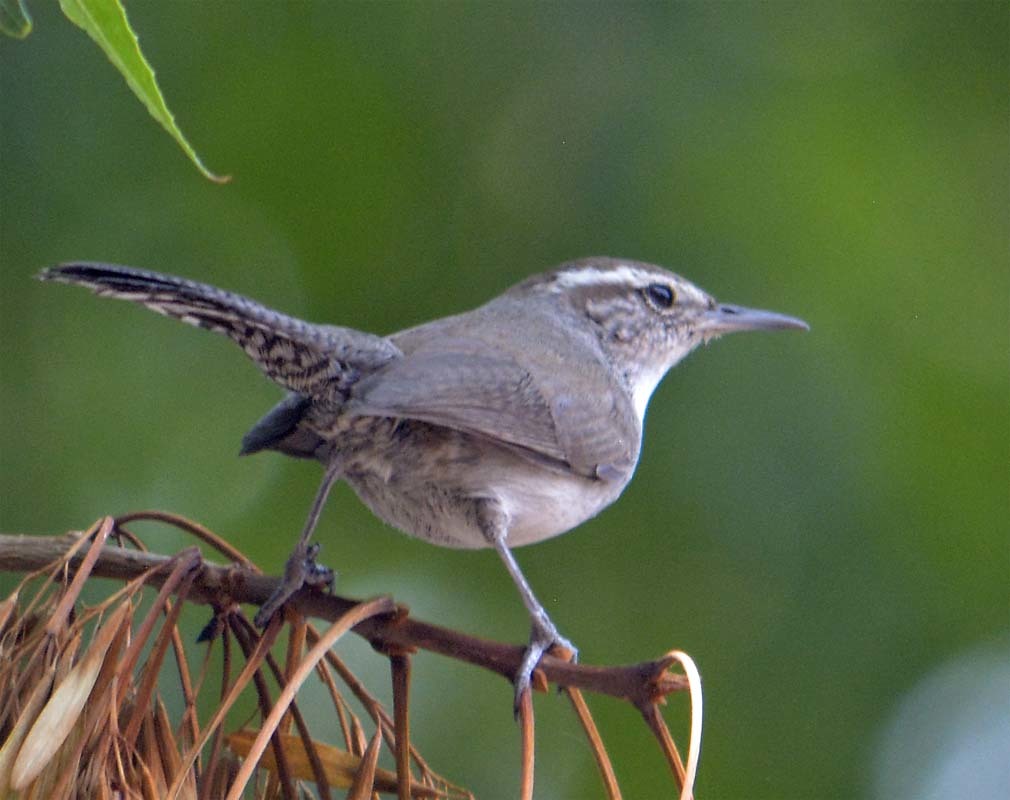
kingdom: Animalia
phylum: Chordata
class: Aves
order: Passeriformes
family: Troglodytidae
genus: Thryomanes
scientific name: Thryomanes bewickii
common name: Bewick's wren
